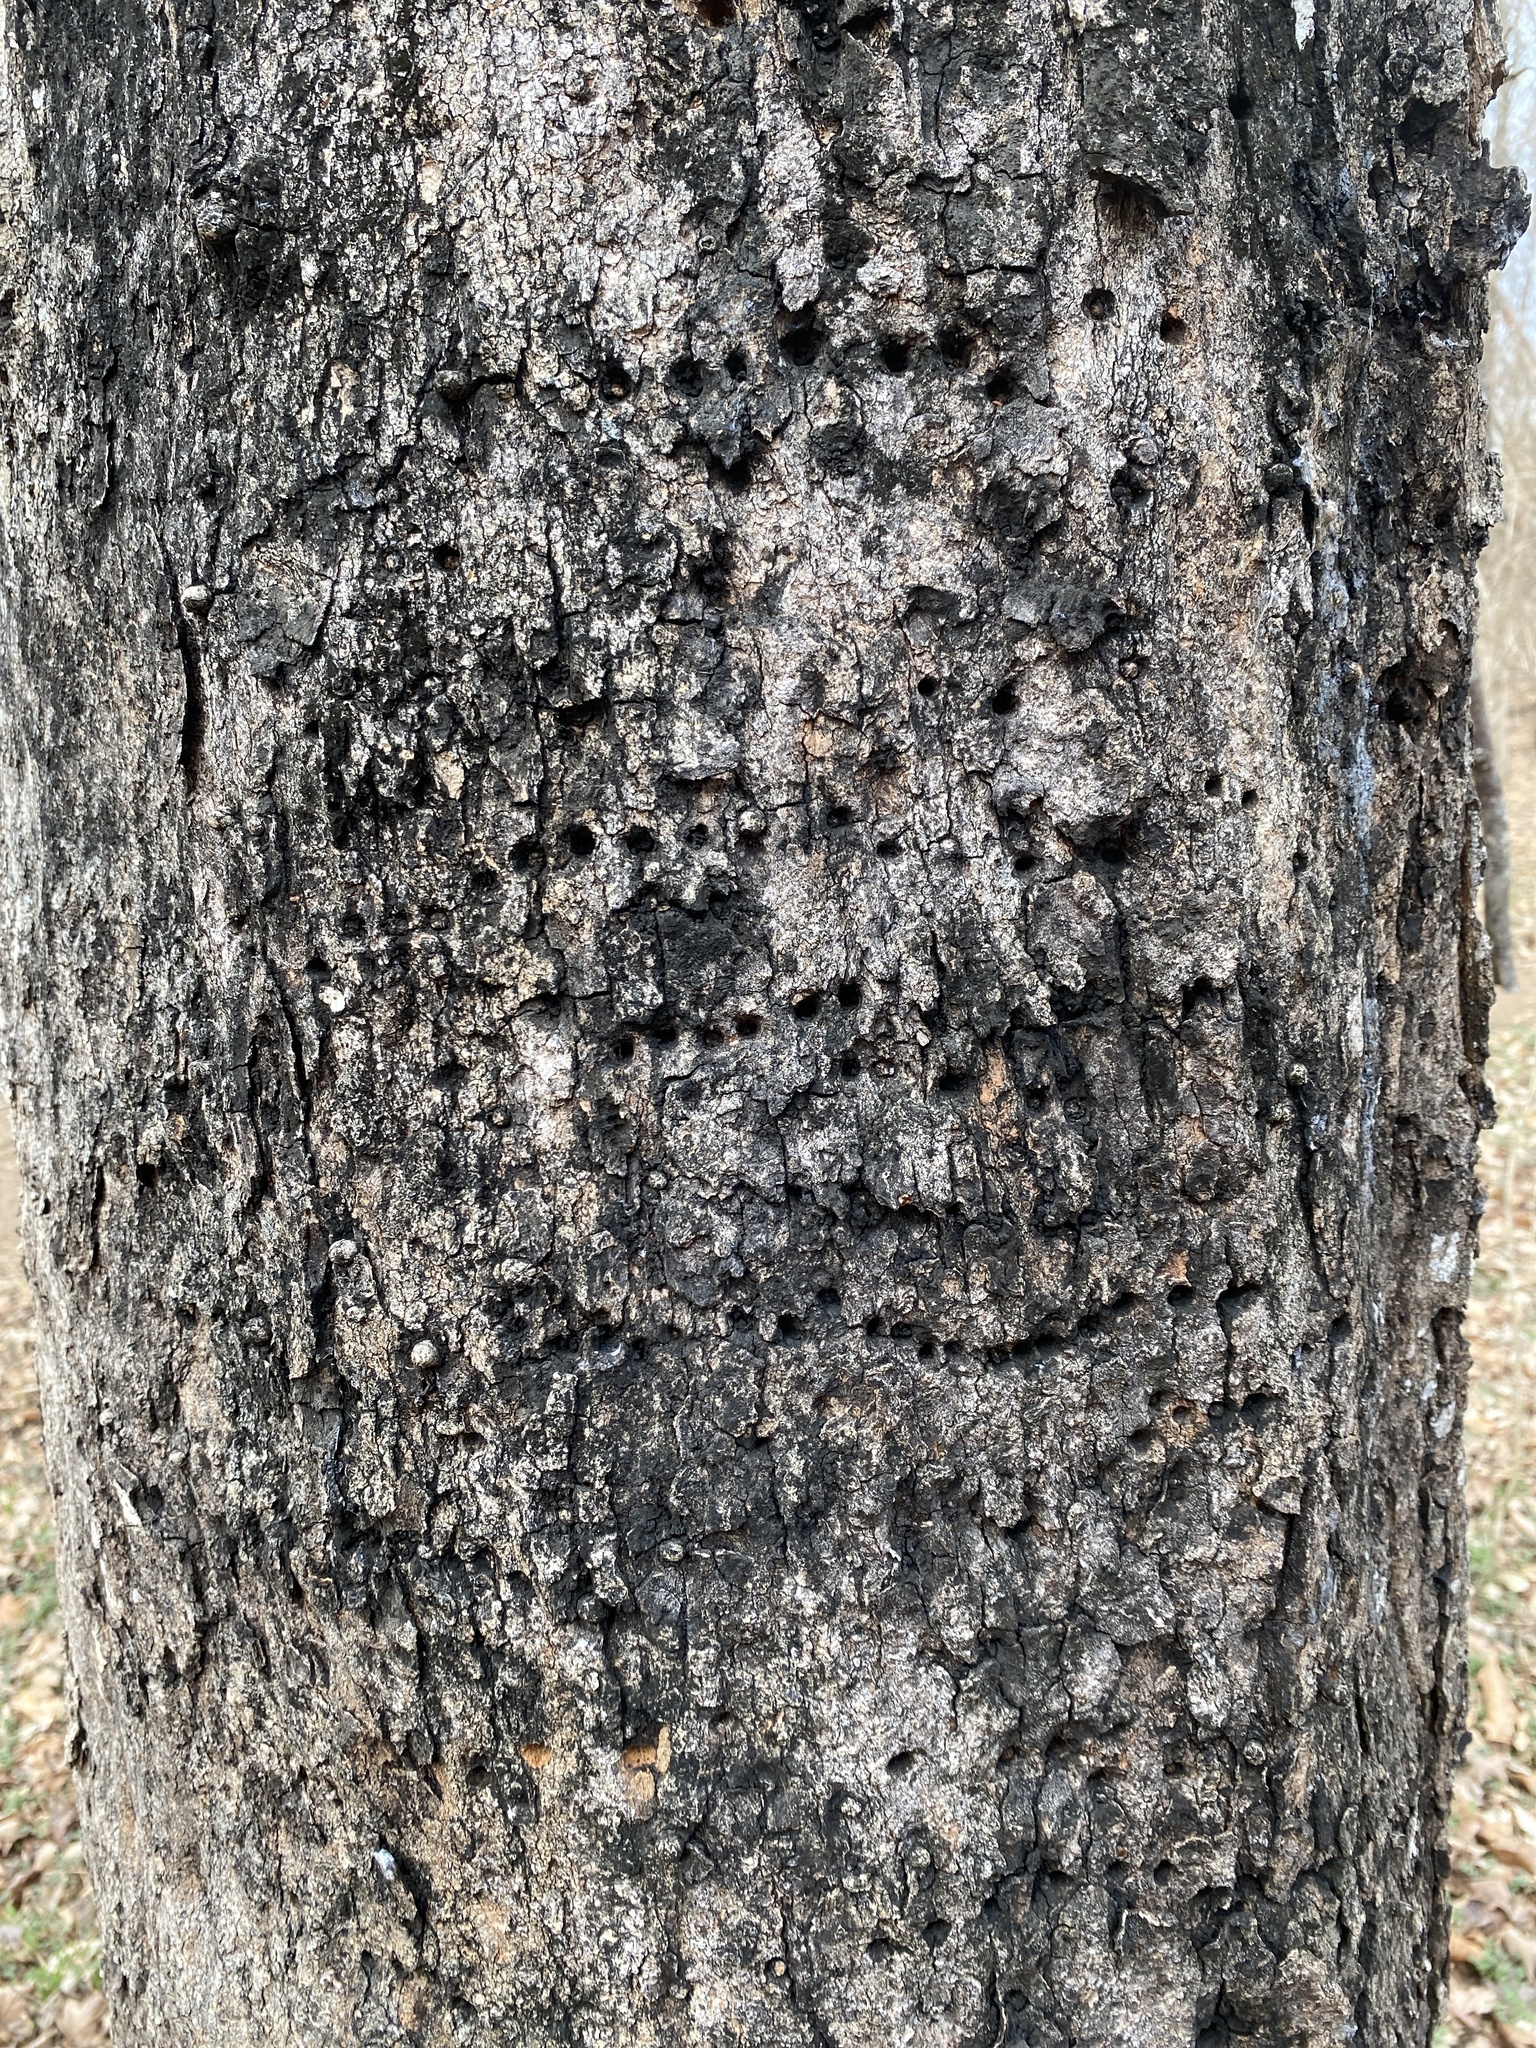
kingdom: Animalia
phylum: Chordata
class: Aves
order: Piciformes
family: Picidae
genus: Sphyrapicus
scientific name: Sphyrapicus varius
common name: Yellow-bellied sapsucker
